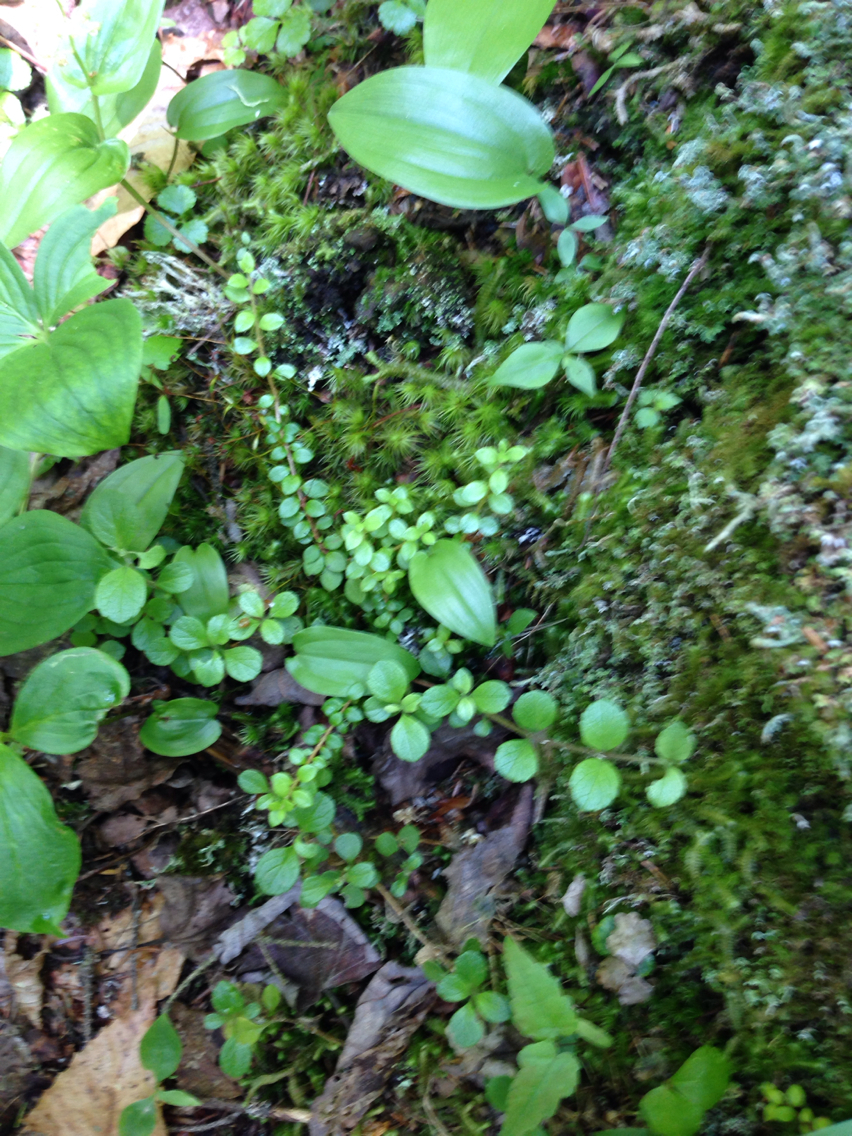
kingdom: Plantae
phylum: Tracheophyta
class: Magnoliopsida
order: Ericales
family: Ericaceae
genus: Gaultheria
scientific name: Gaultheria hispidula
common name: Cancer wintergreen
